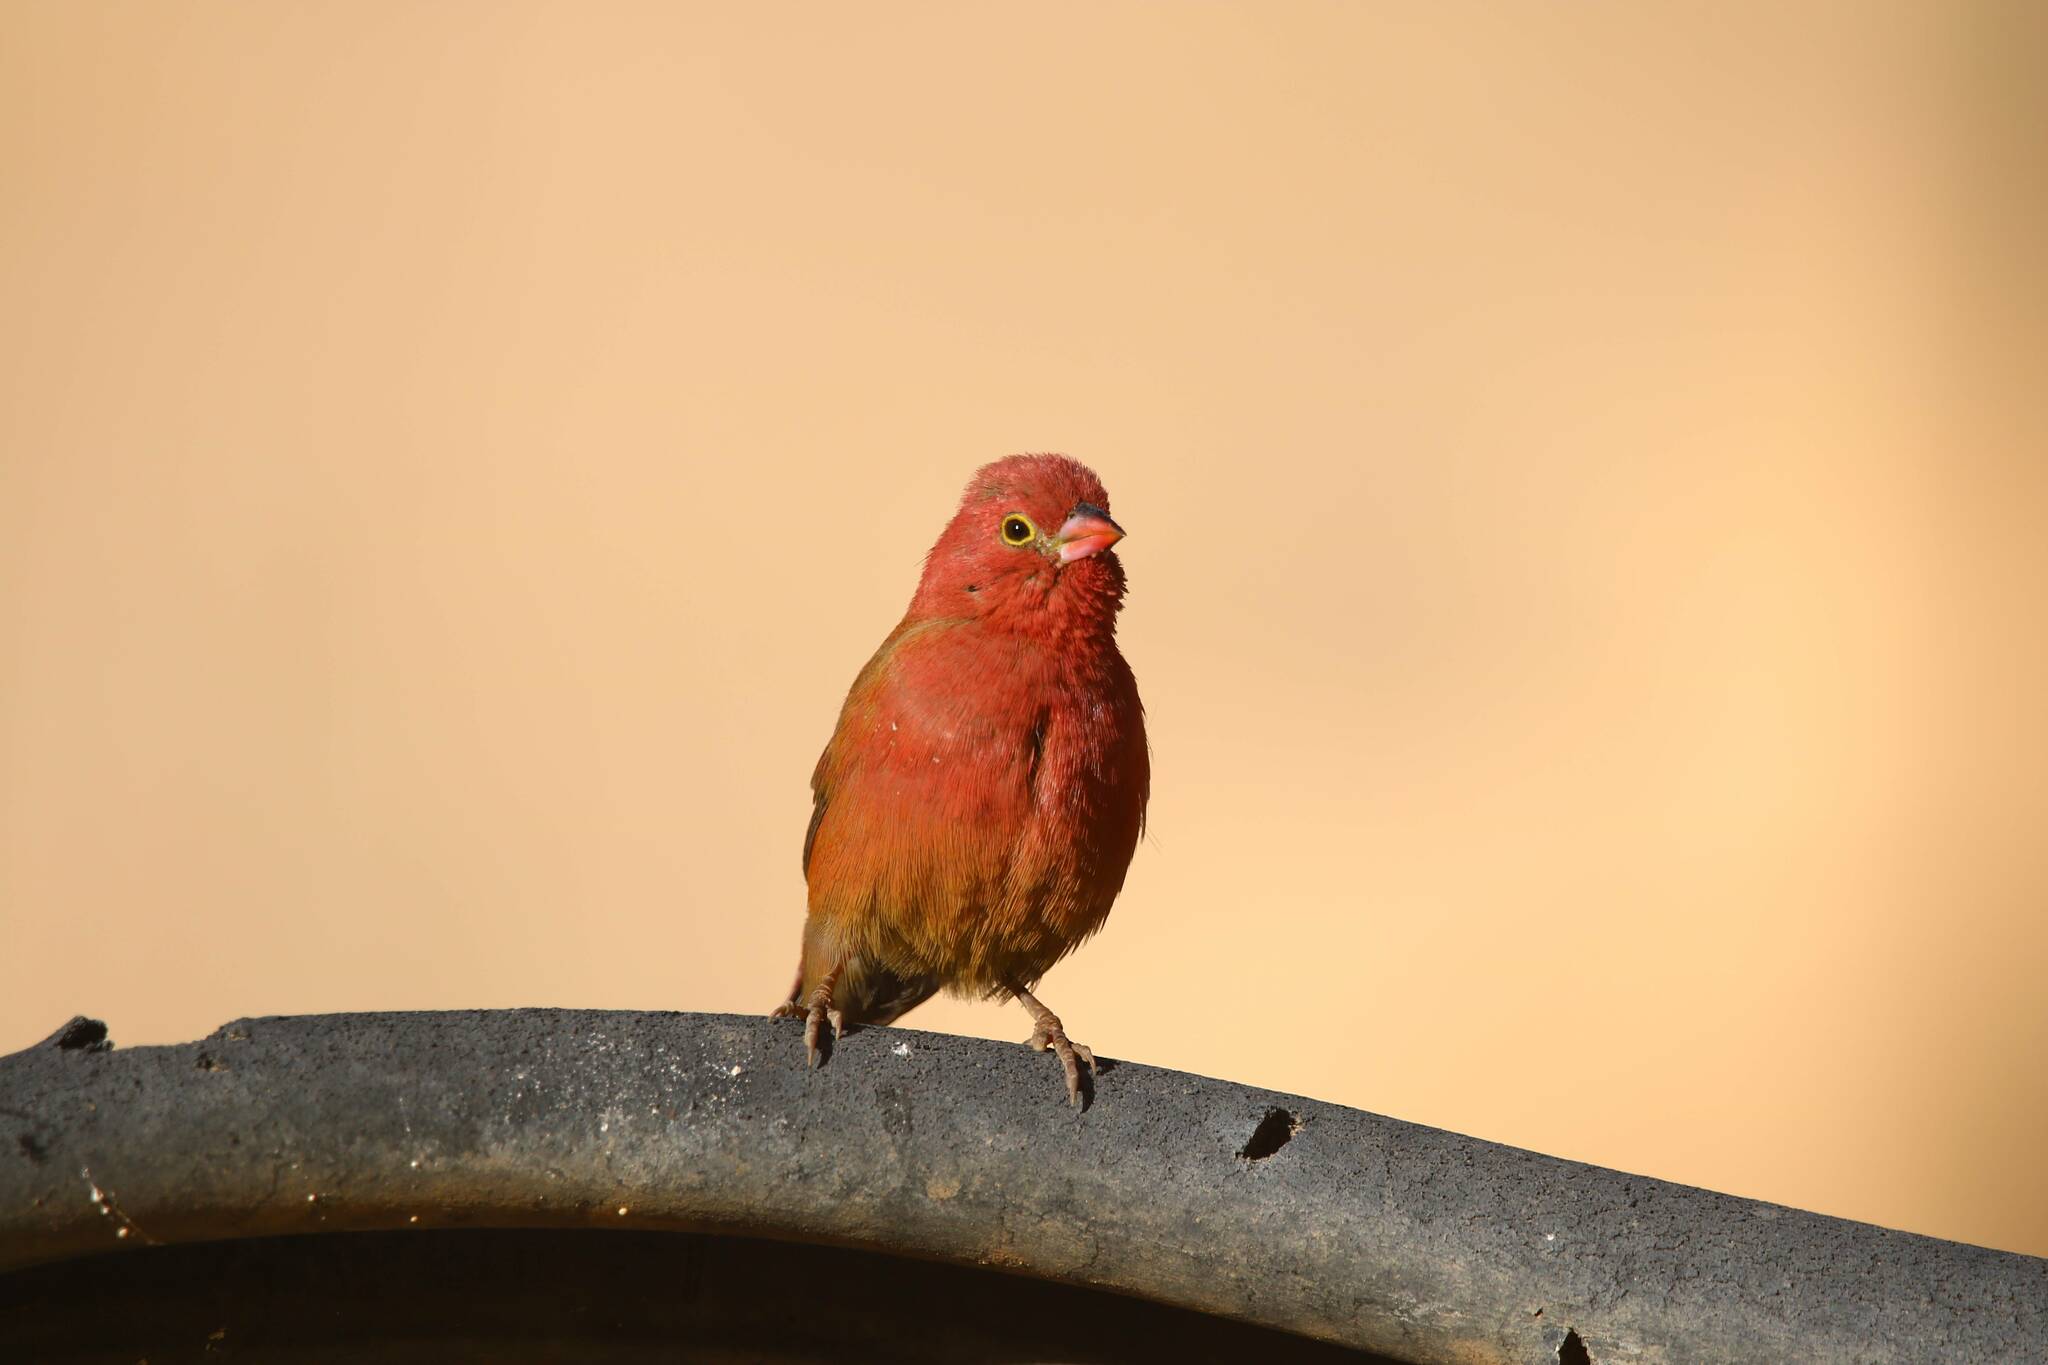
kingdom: Animalia
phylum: Chordata
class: Aves
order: Passeriformes
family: Estrildidae
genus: Lagonosticta
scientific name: Lagonosticta senegala
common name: Red-billed firefinch
